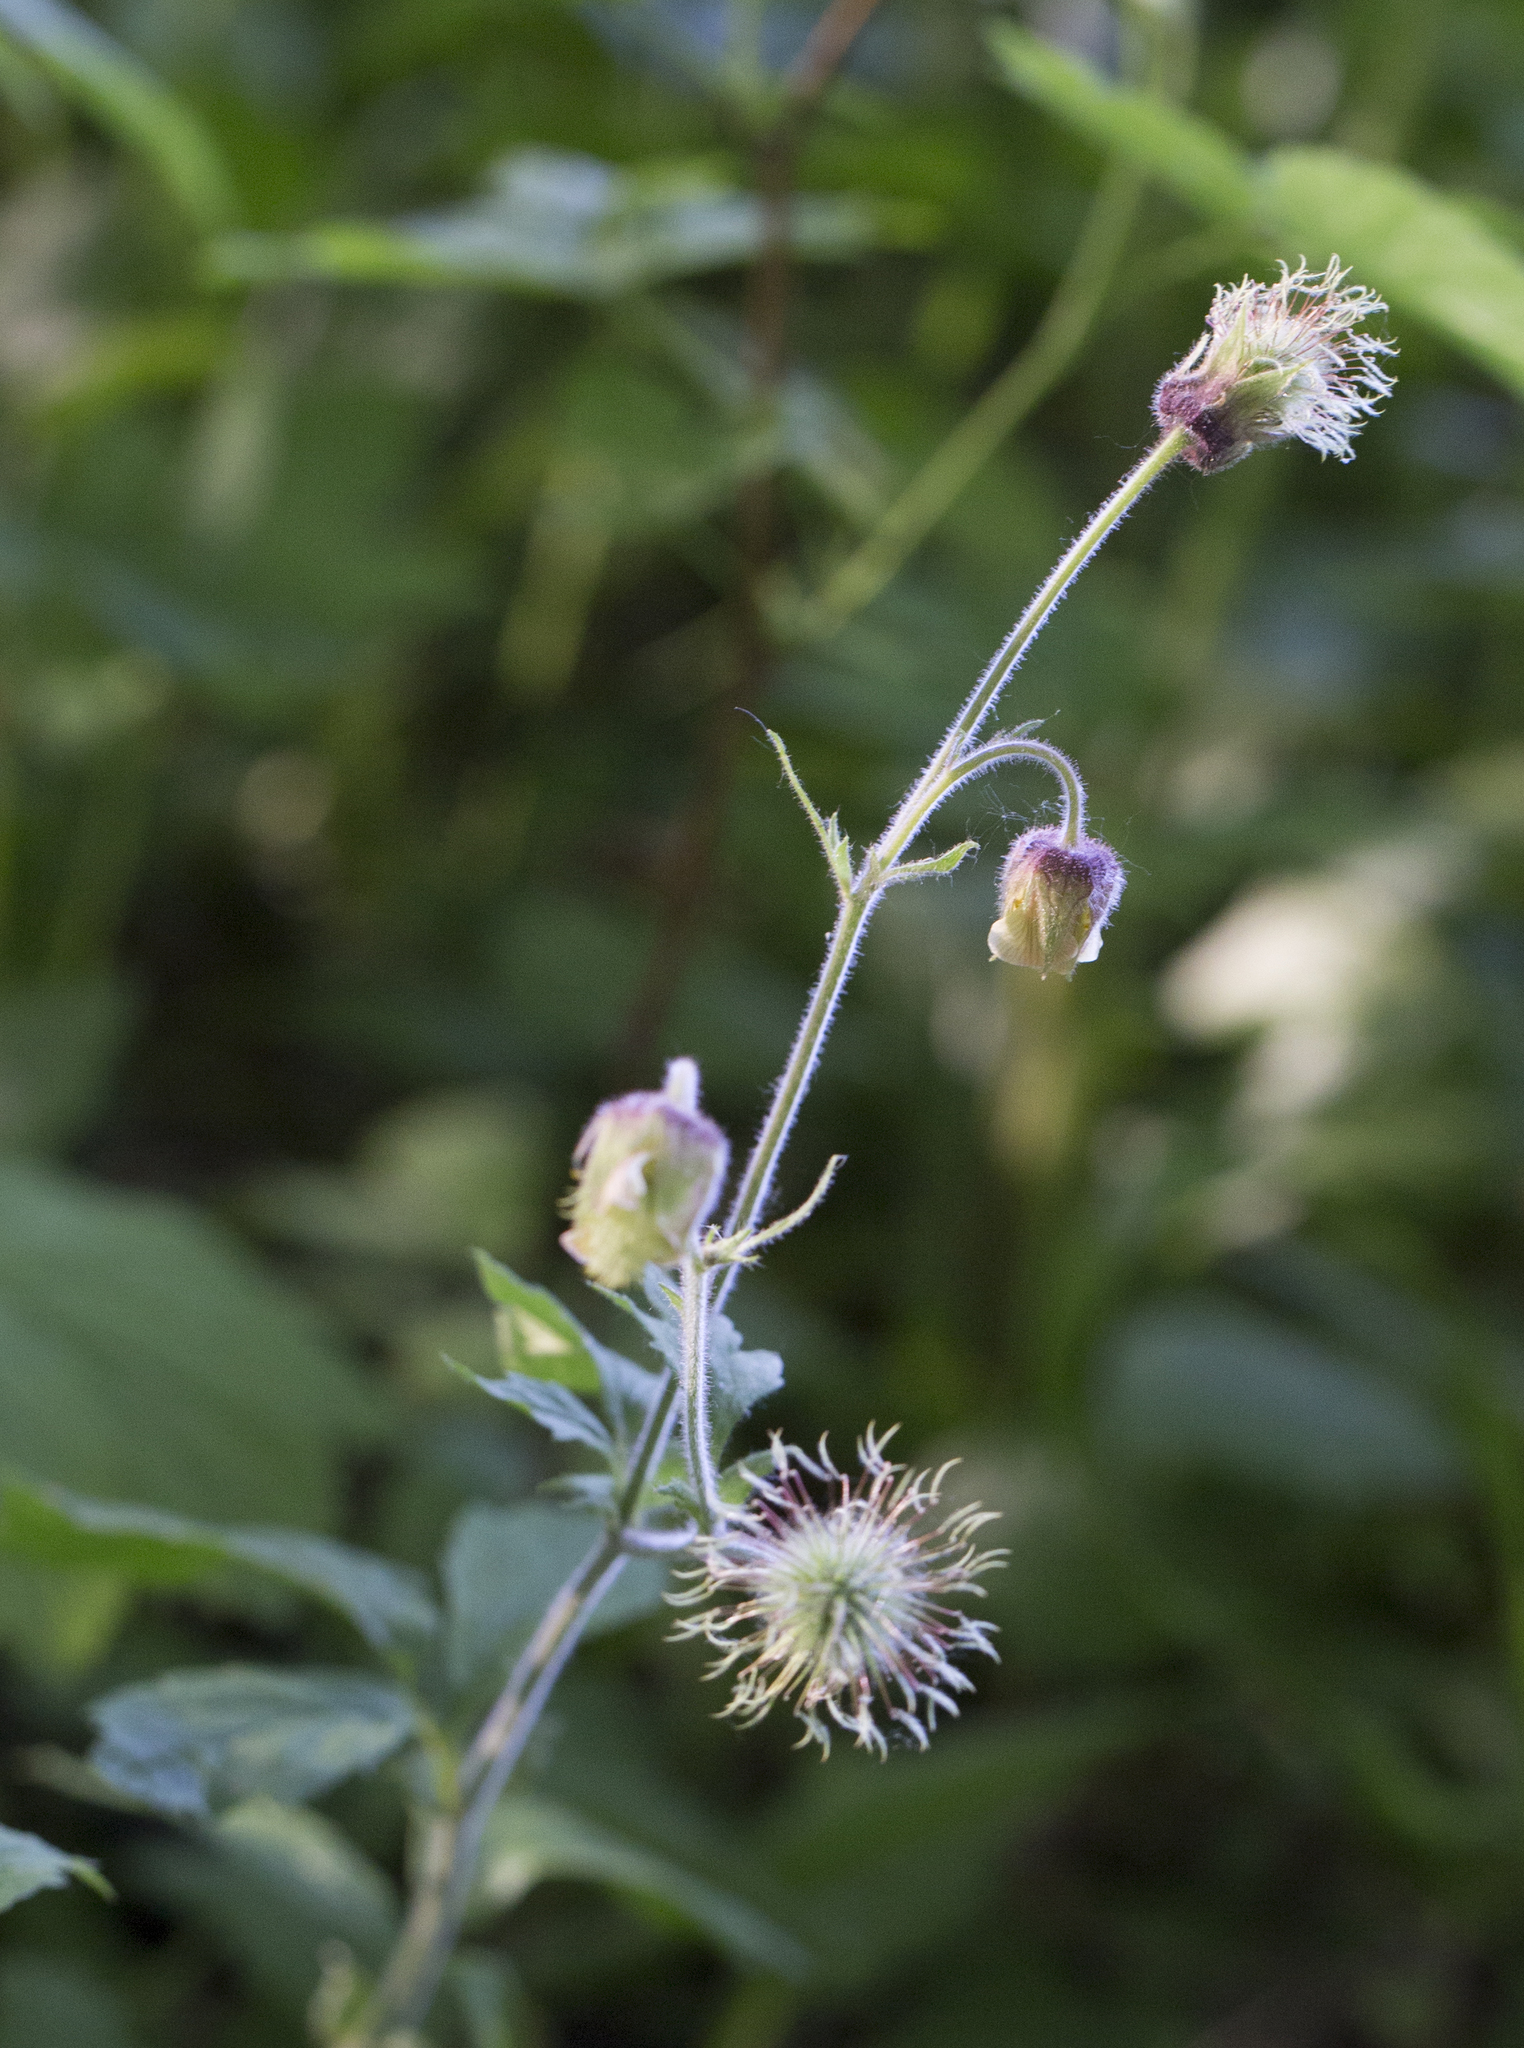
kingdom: Plantae
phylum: Tracheophyta
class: Magnoliopsida
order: Rosales
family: Rosaceae
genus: Geum
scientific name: Geum rivale
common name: Water avens
